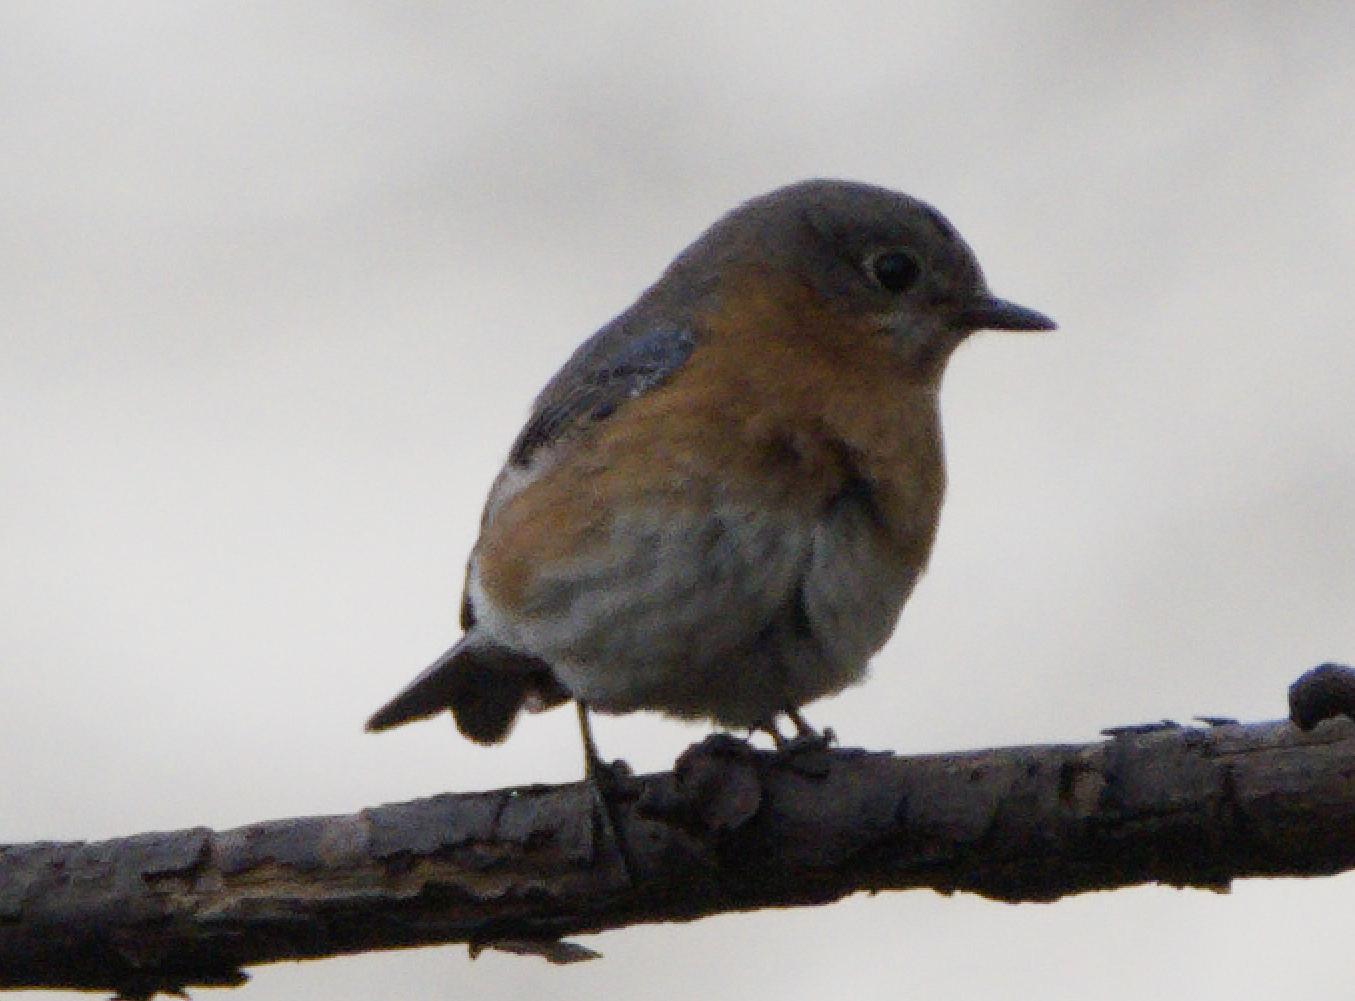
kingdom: Animalia
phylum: Chordata
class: Aves
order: Passeriformes
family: Turdidae
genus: Sialia
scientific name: Sialia sialis
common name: Eastern bluebird
